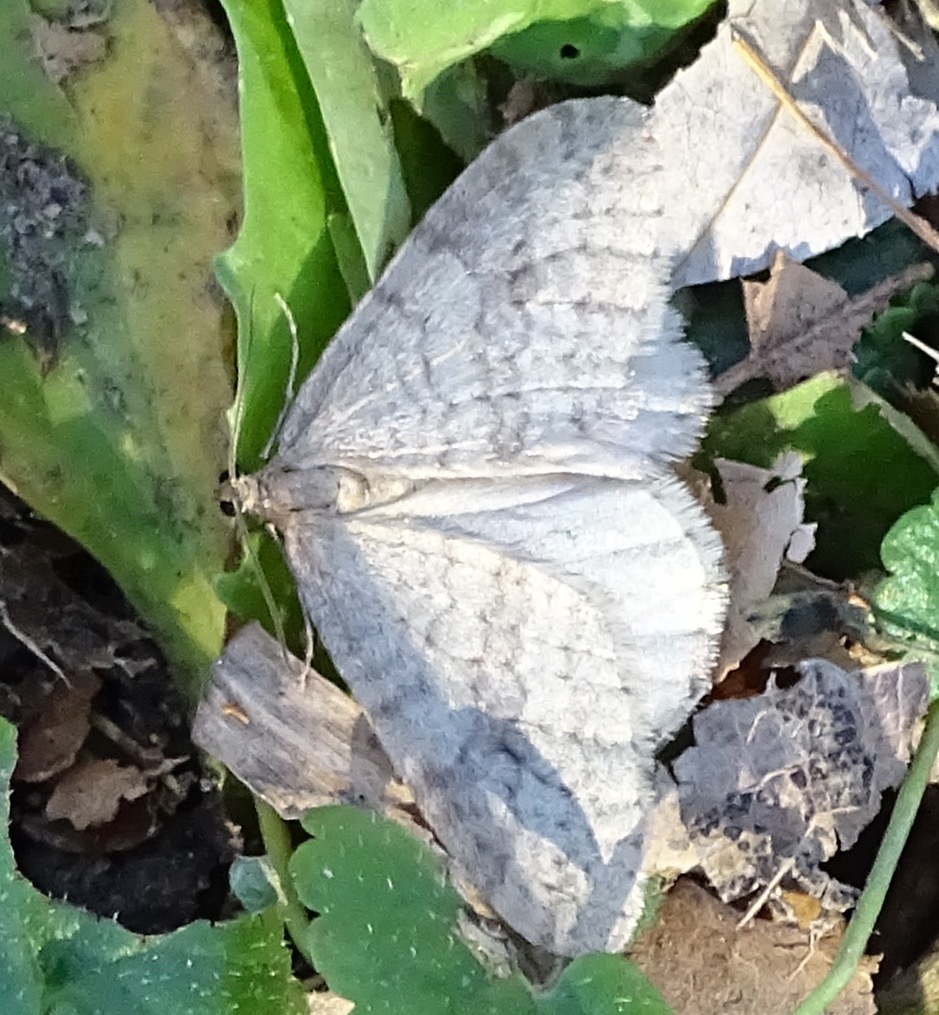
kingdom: Animalia
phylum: Arthropoda
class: Insecta
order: Lepidoptera
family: Geometridae
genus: Operophtera
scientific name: Operophtera bruceata
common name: Bruce spanworm
